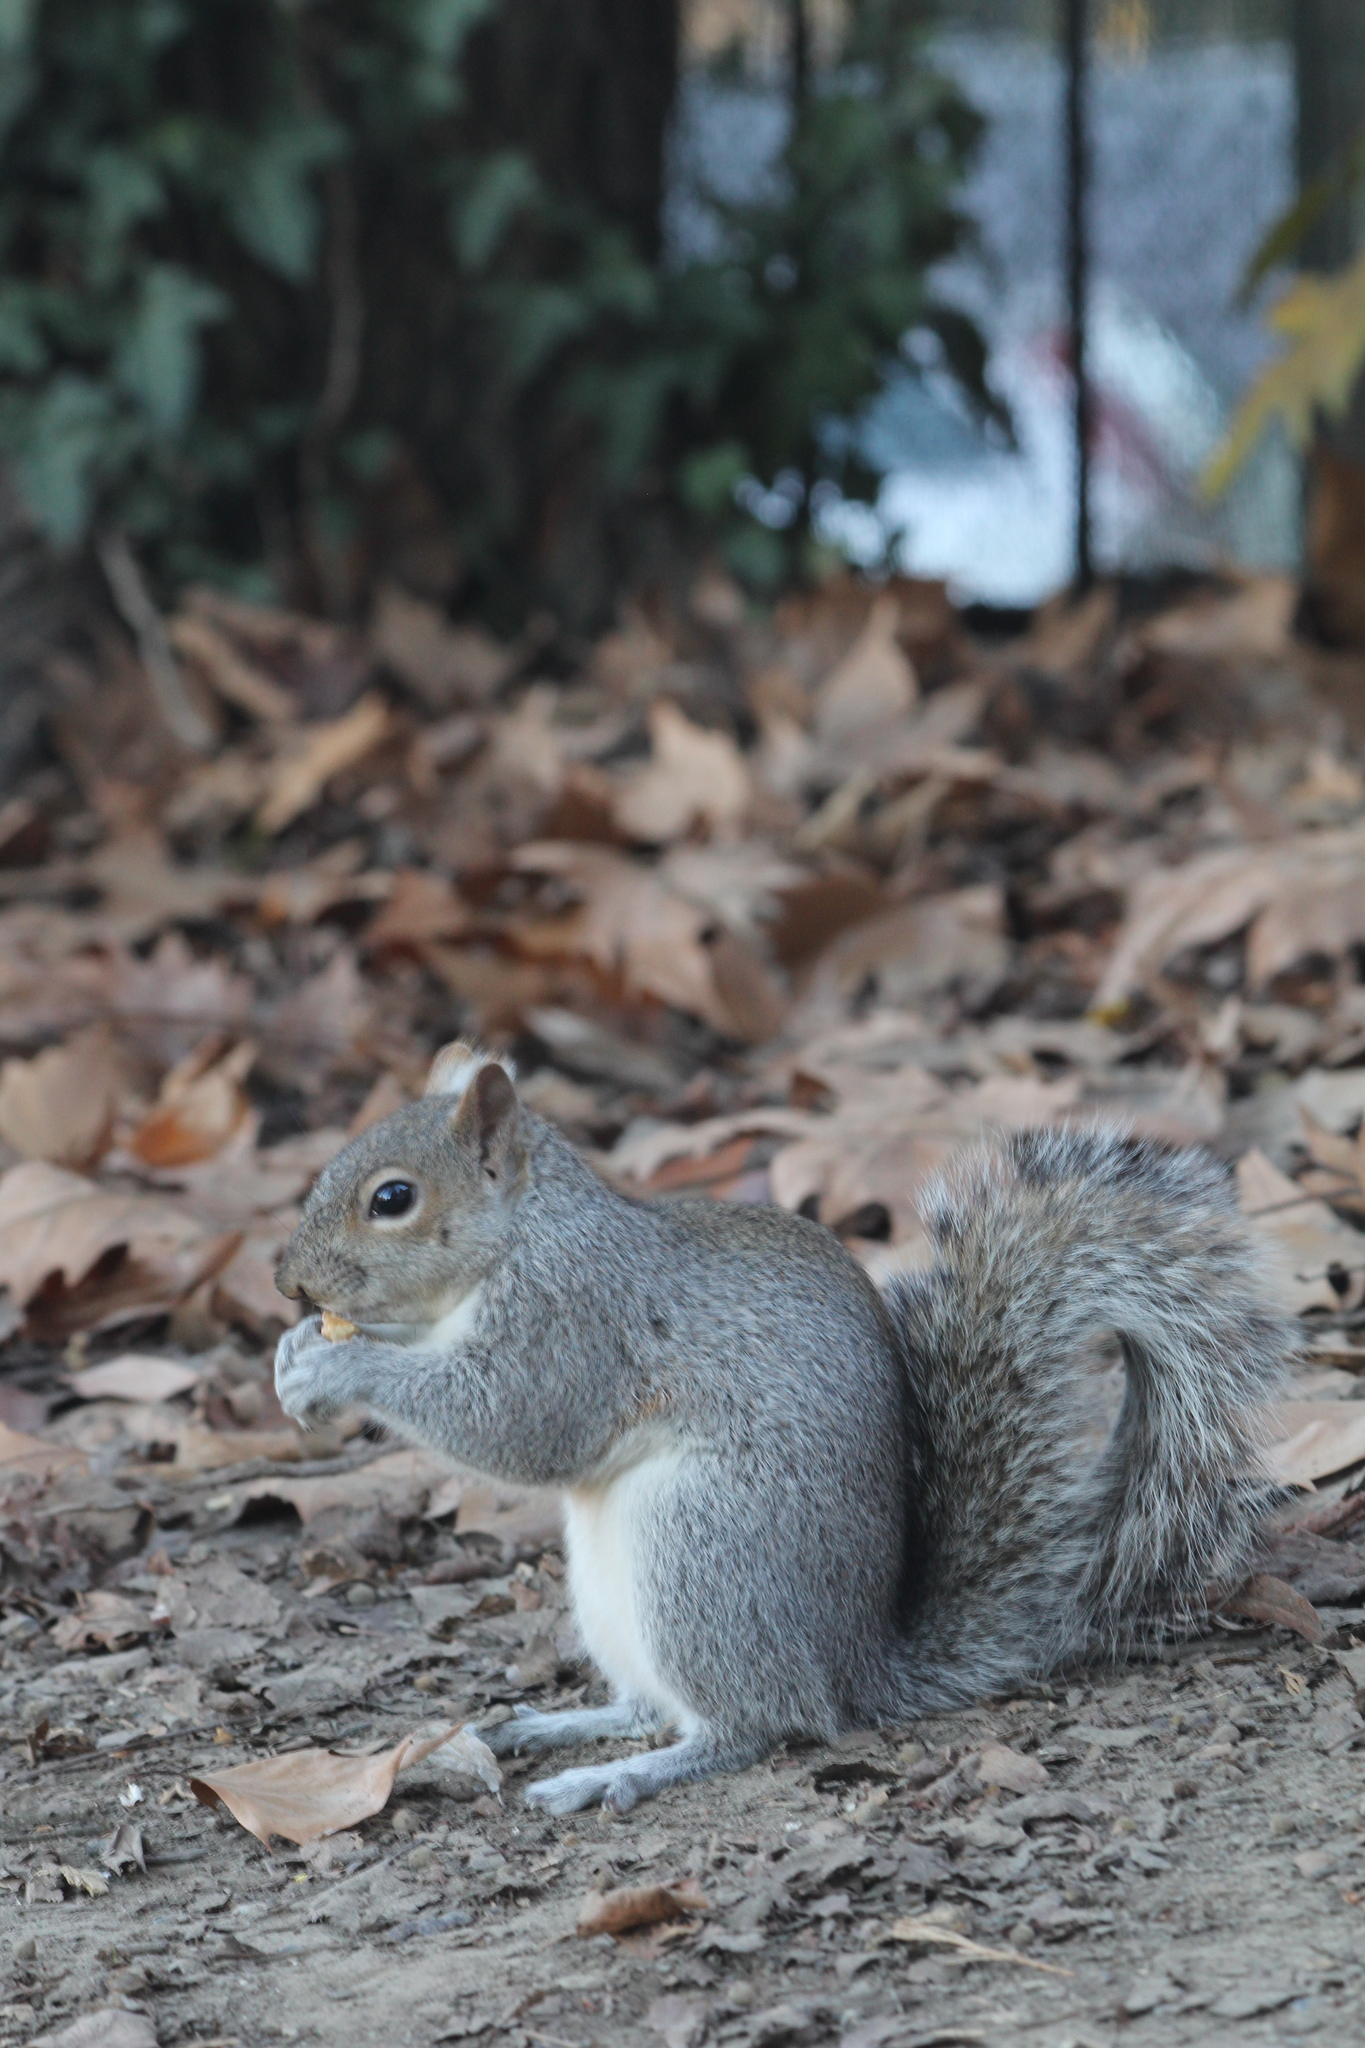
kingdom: Animalia
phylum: Chordata
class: Mammalia
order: Rodentia
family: Sciuridae
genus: Sciurus
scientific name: Sciurus carolinensis
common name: Eastern gray squirrel
